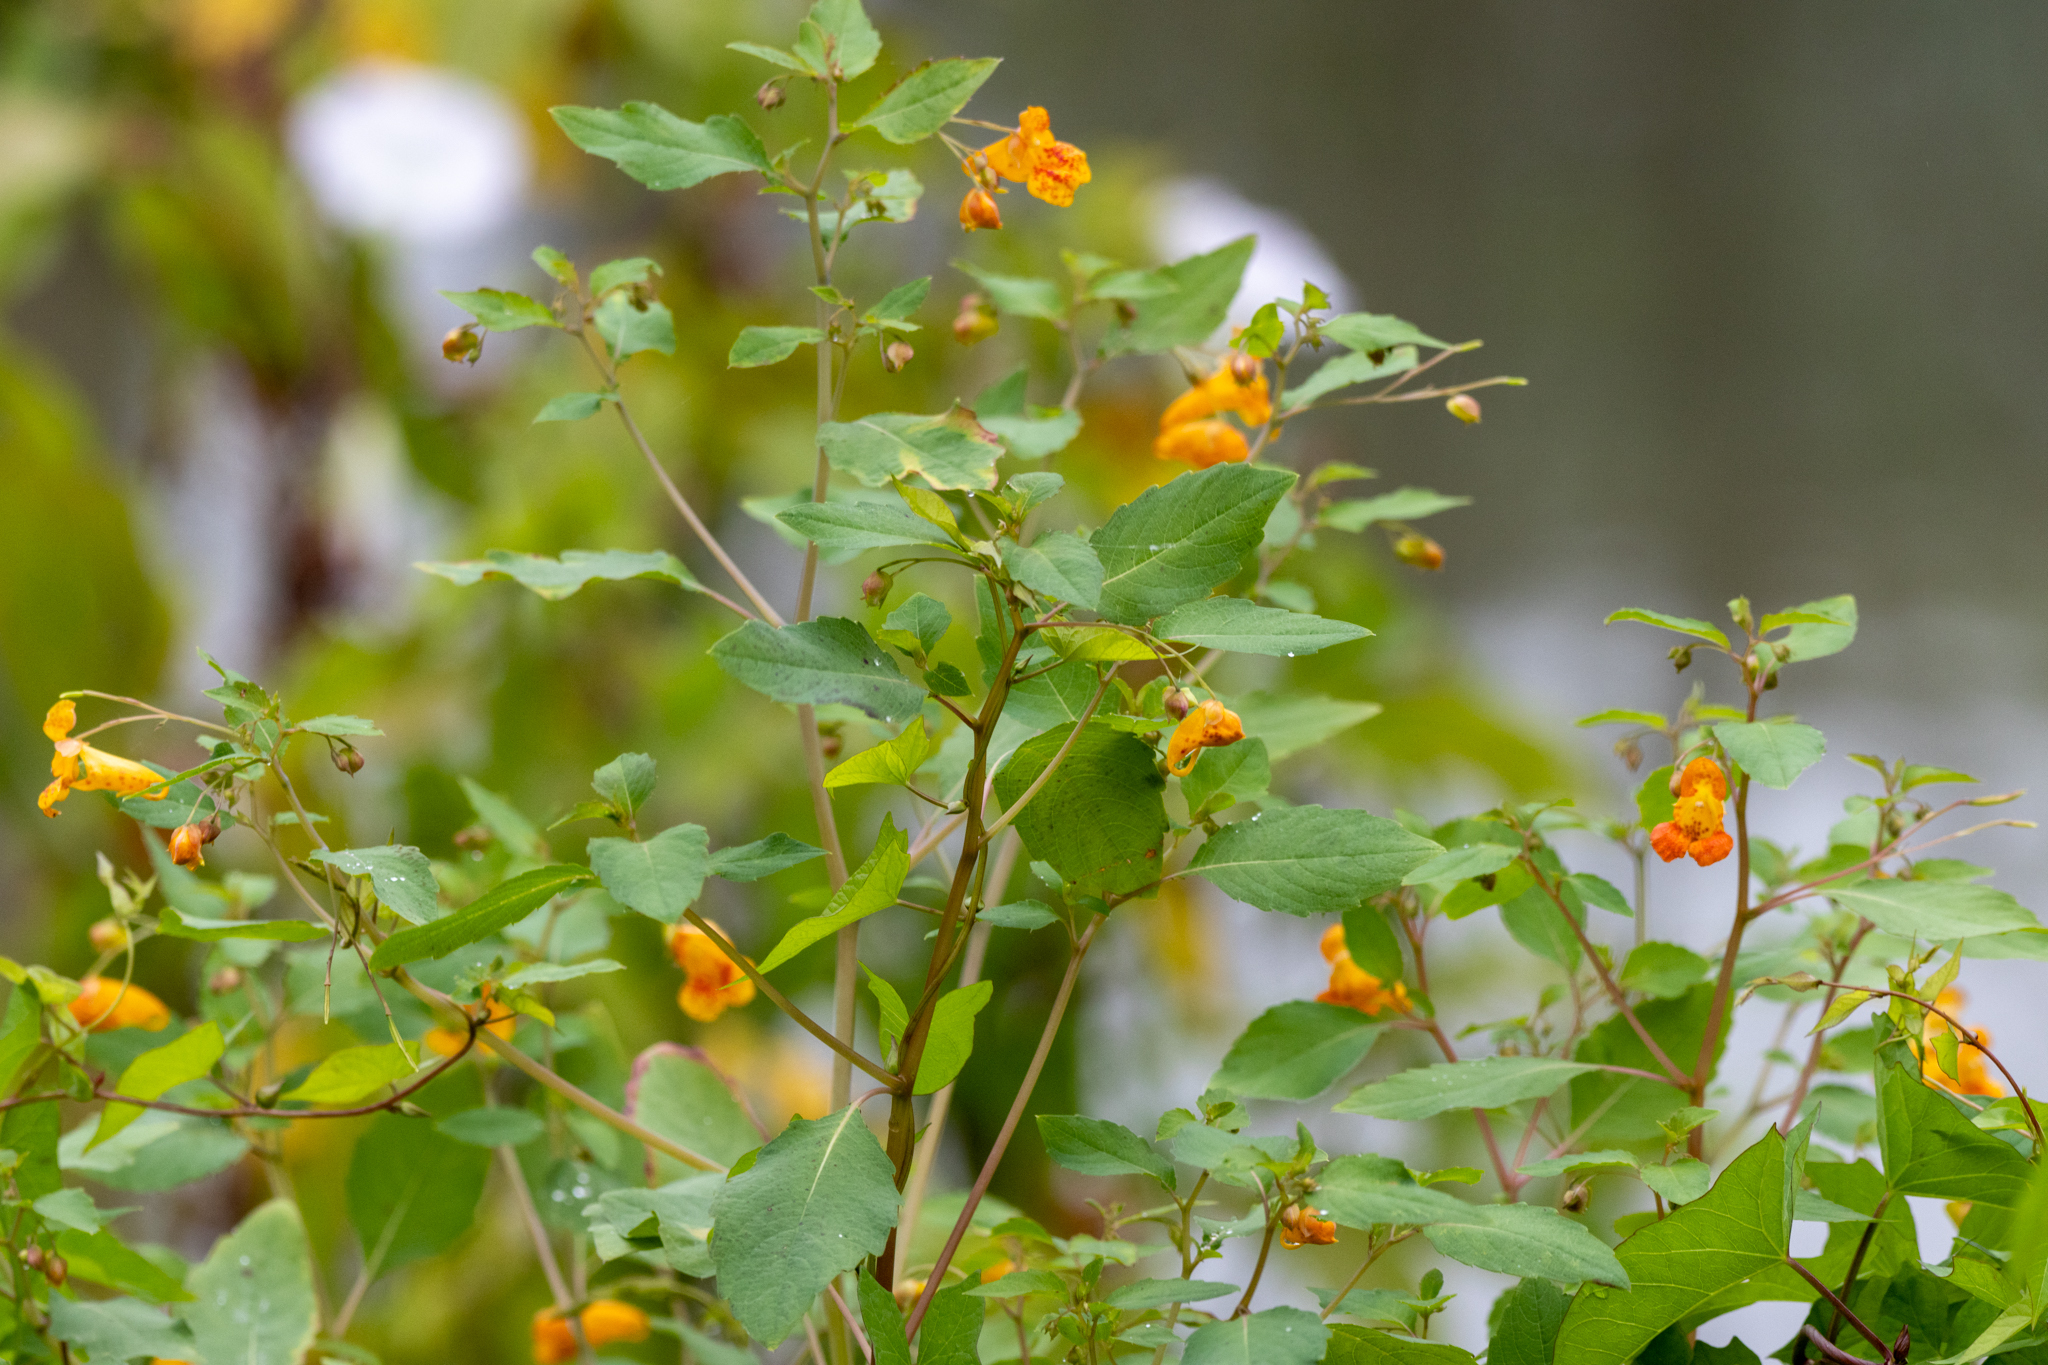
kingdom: Plantae
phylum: Tracheophyta
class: Magnoliopsida
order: Ericales
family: Balsaminaceae
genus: Impatiens
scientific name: Impatiens capensis
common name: Orange balsam
